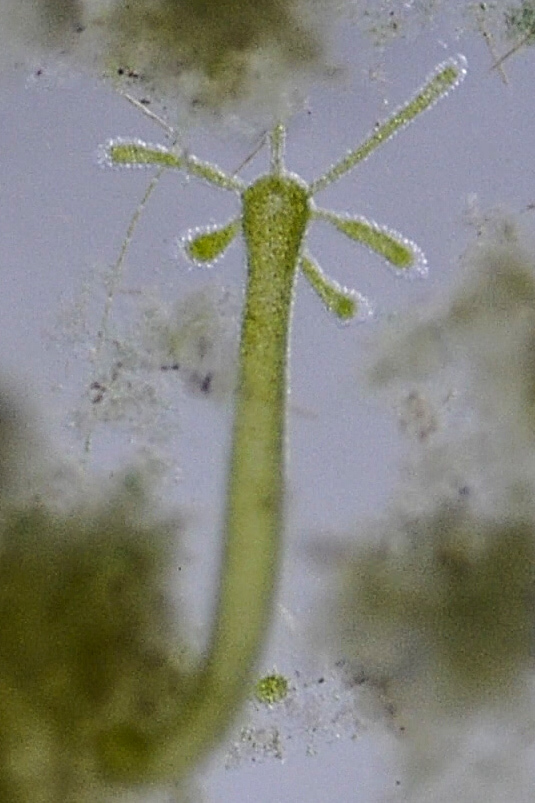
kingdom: Animalia
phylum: Cnidaria
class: Hydrozoa
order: Anthoathecata
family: Hydridae
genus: Hydra
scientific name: Hydra viridissima
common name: Green hydra
